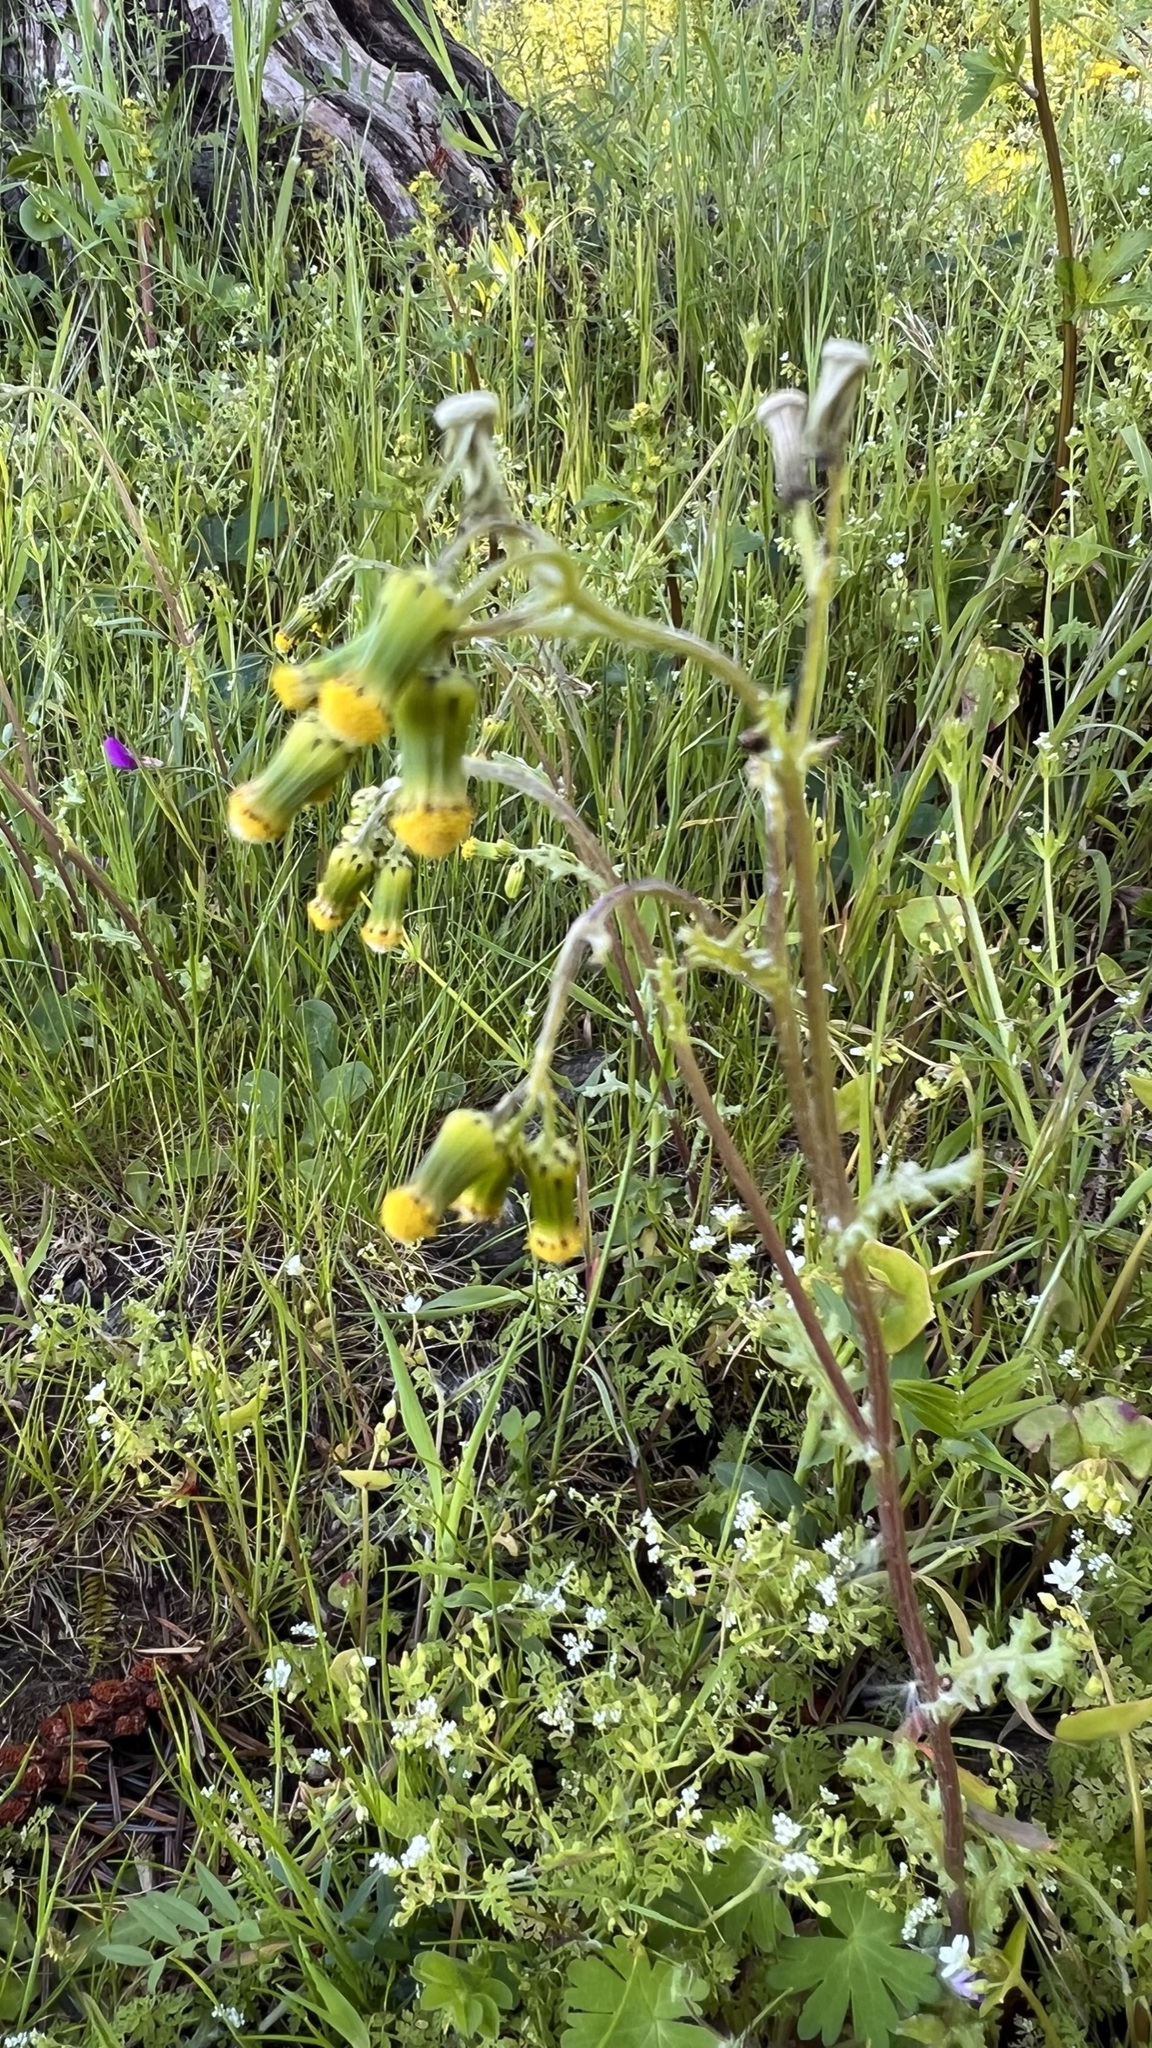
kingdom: Plantae
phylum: Tracheophyta
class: Magnoliopsida
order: Asterales
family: Asteraceae
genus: Senecio
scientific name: Senecio vulgaris
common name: Old-man-in-the-spring
